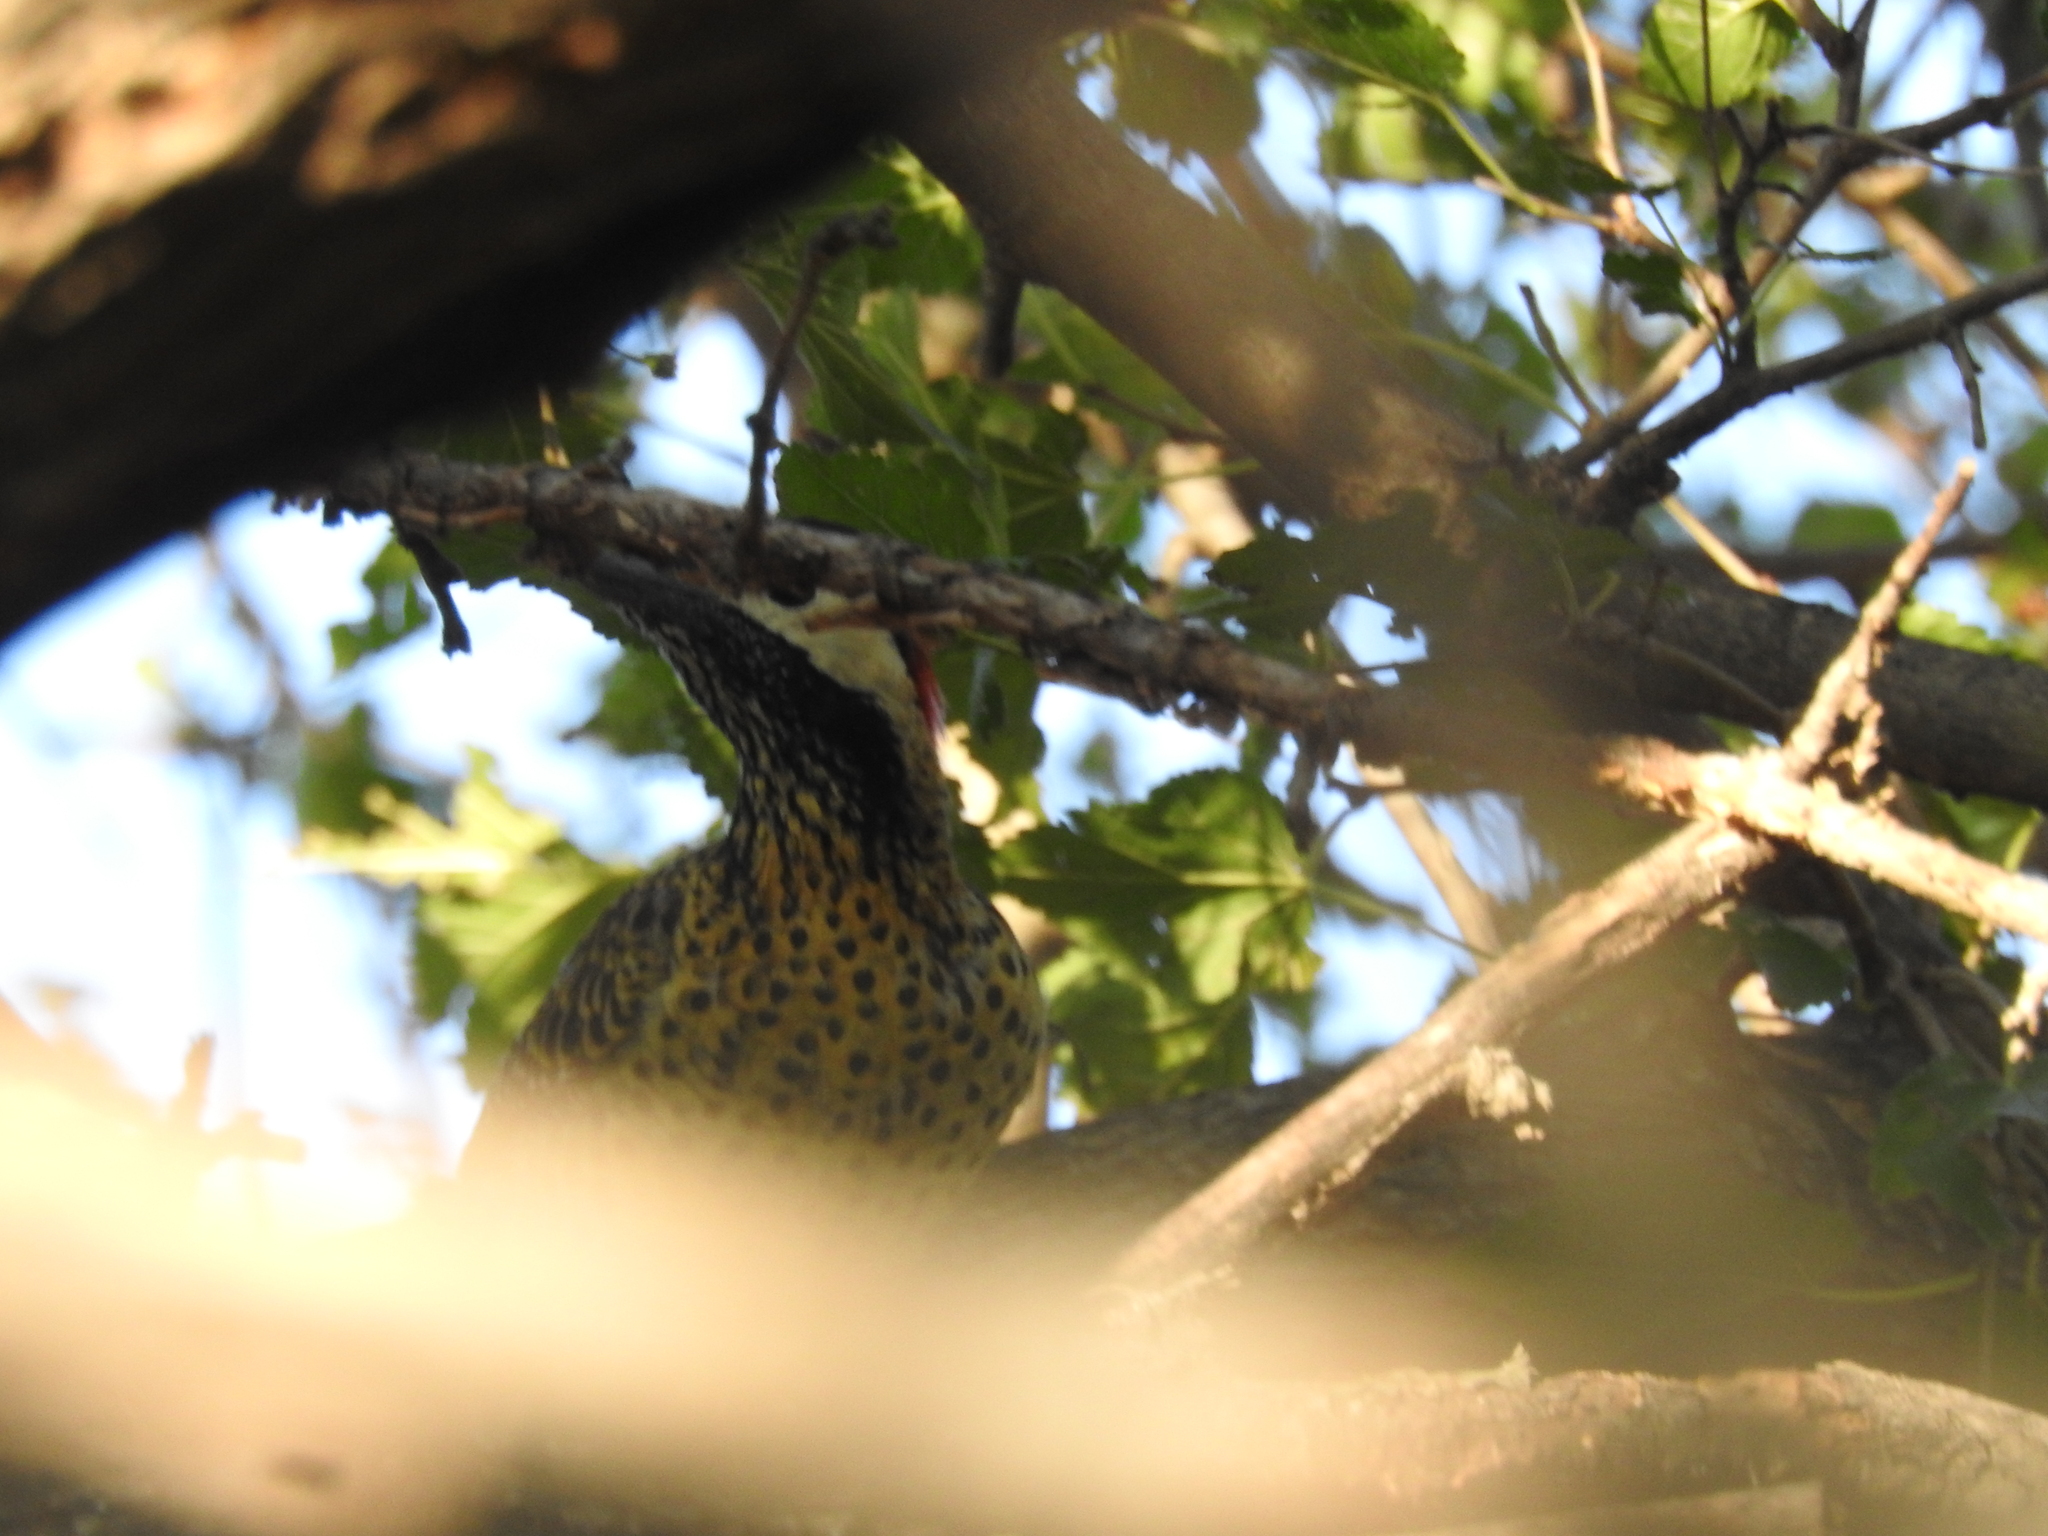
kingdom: Animalia
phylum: Chordata
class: Aves
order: Piciformes
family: Picidae
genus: Colaptes
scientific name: Colaptes melanochloros
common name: Green-barred woodpecker
